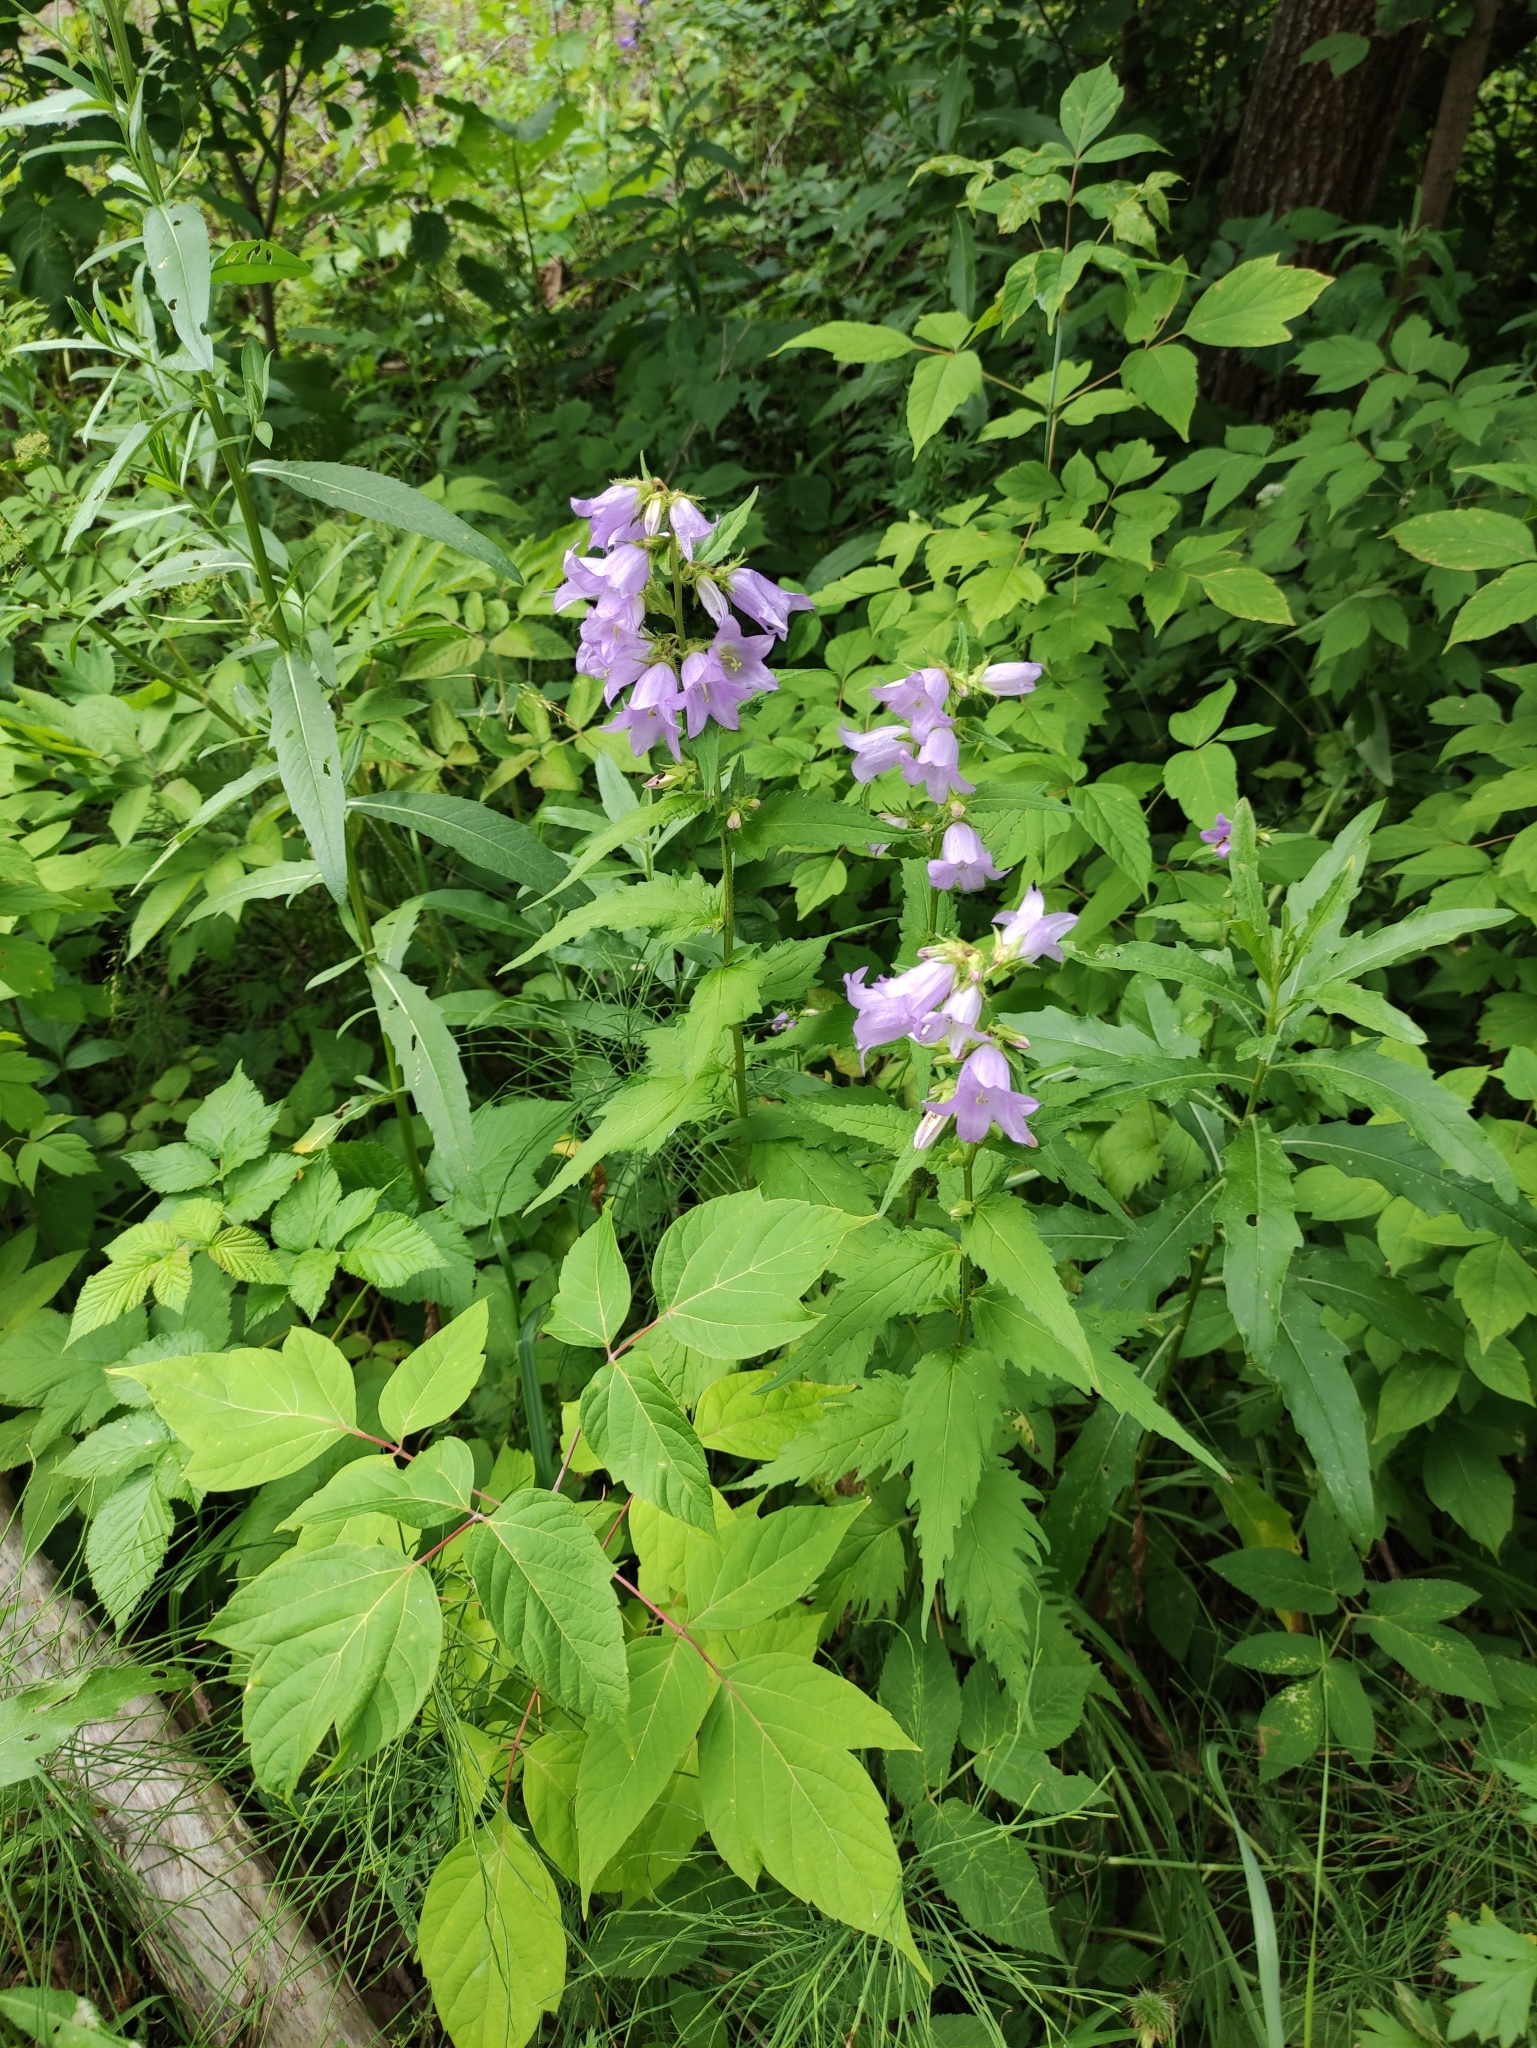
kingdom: Plantae
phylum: Tracheophyta
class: Magnoliopsida
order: Asterales
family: Campanulaceae
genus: Campanula
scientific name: Campanula trachelium
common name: Nettle-leaved bellflower
